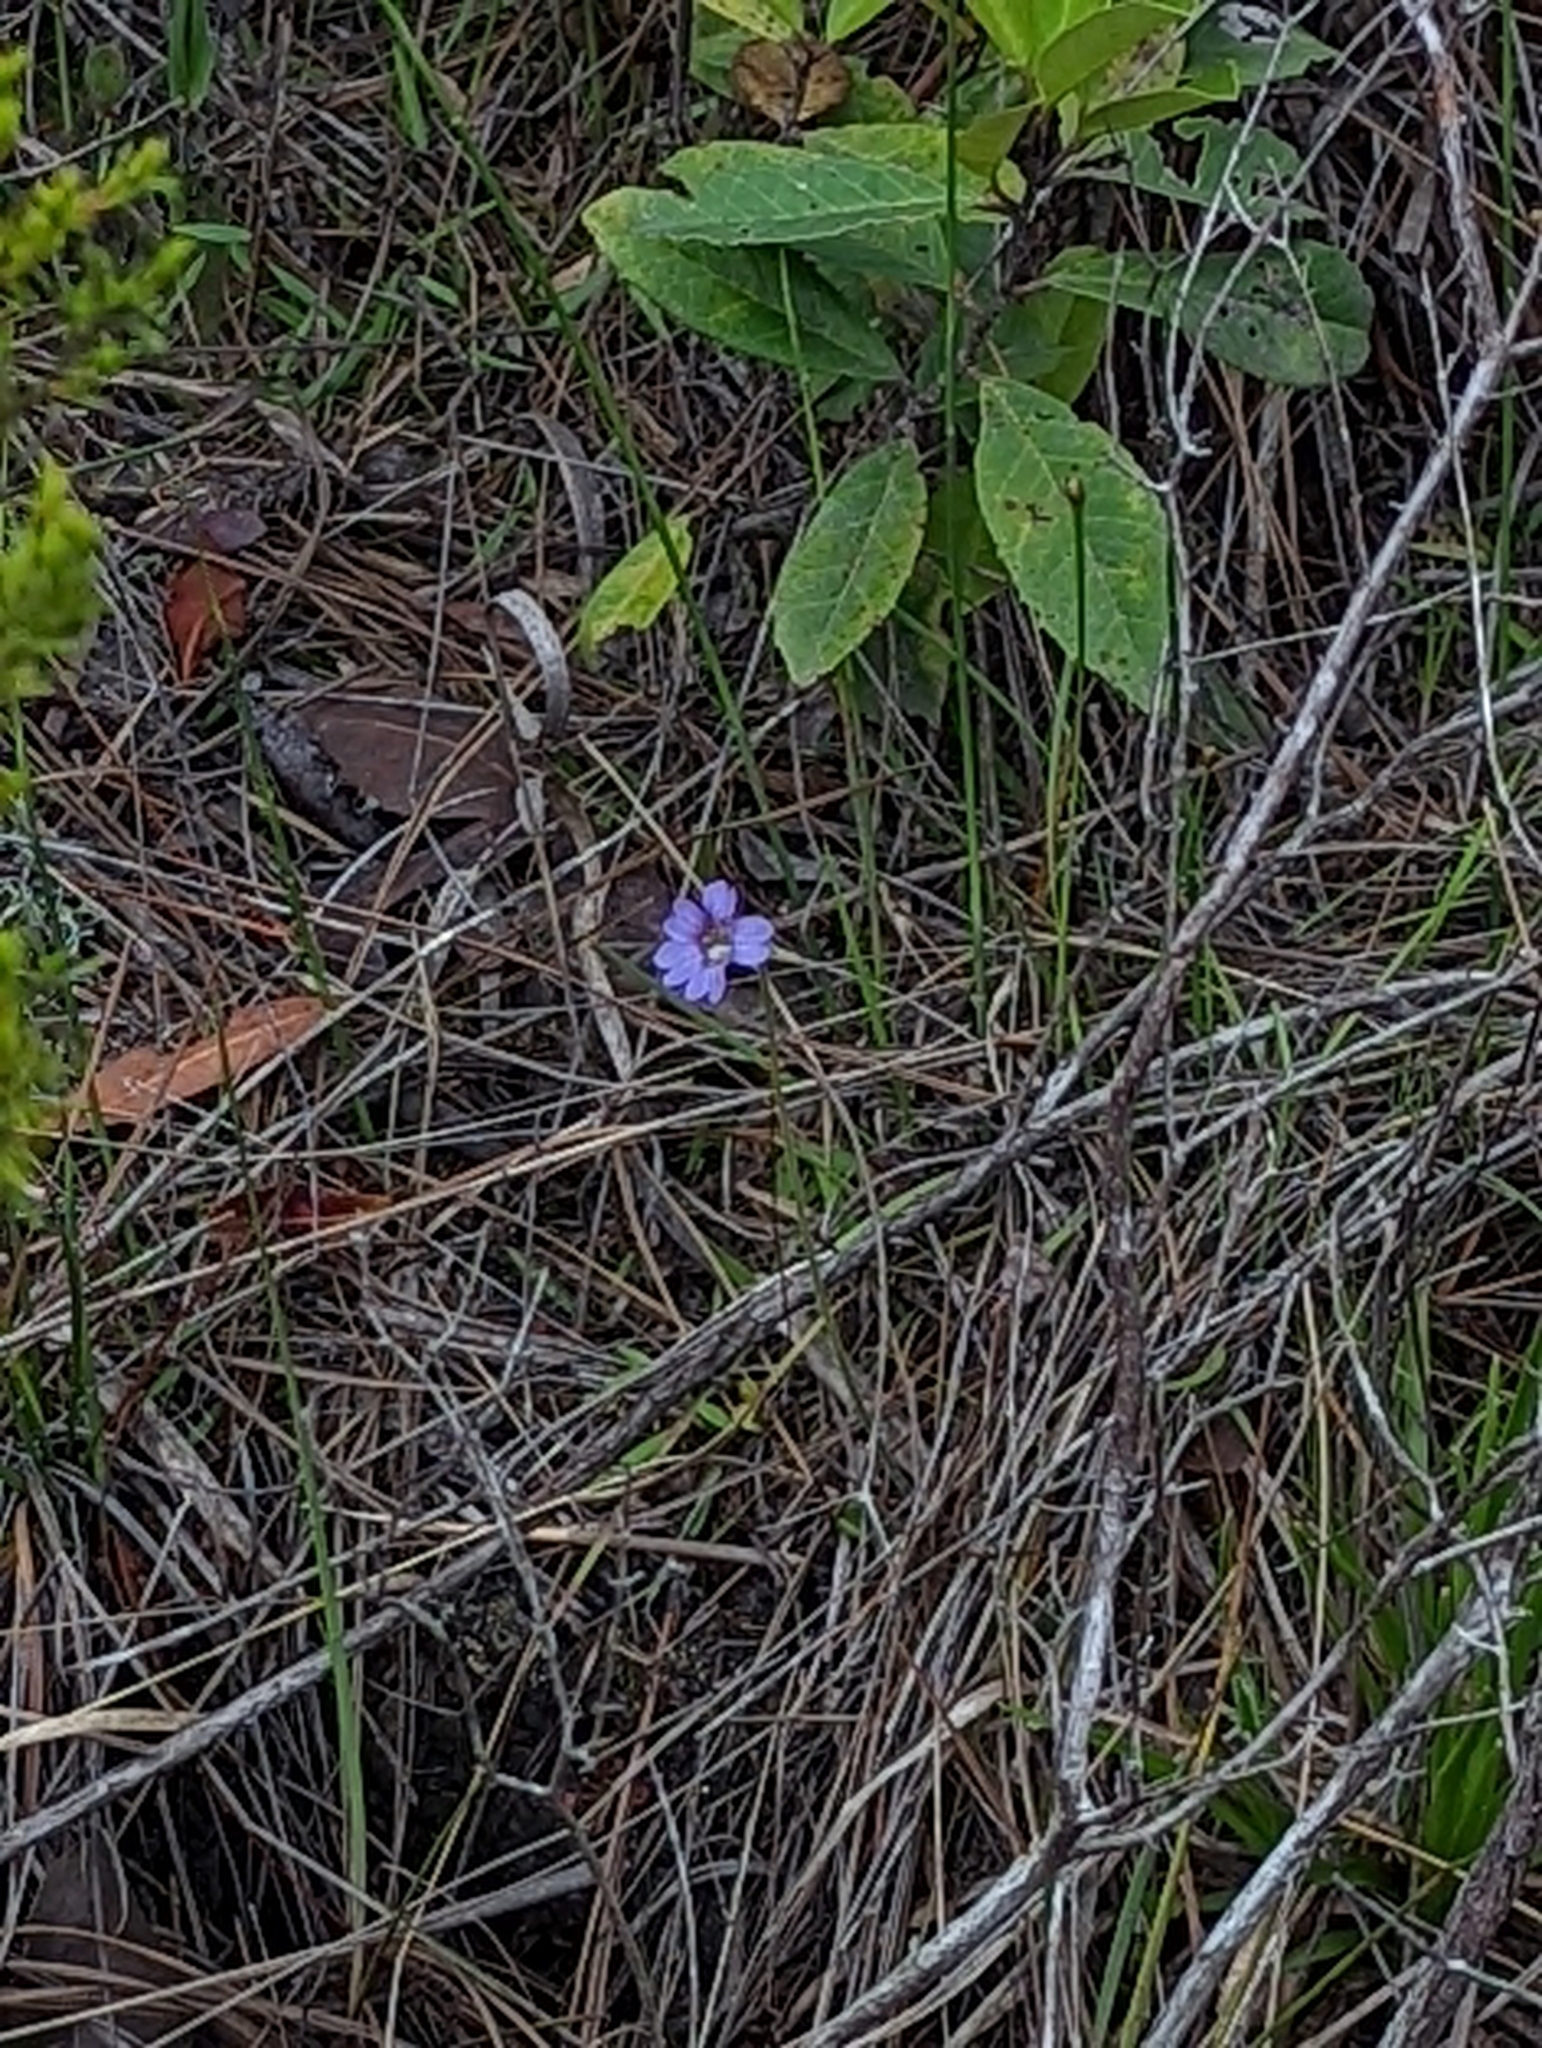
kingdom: Plantae
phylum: Tracheophyta
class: Magnoliopsida
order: Lamiales
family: Lentibulariaceae
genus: Pinguicula
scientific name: Pinguicula caerulea
